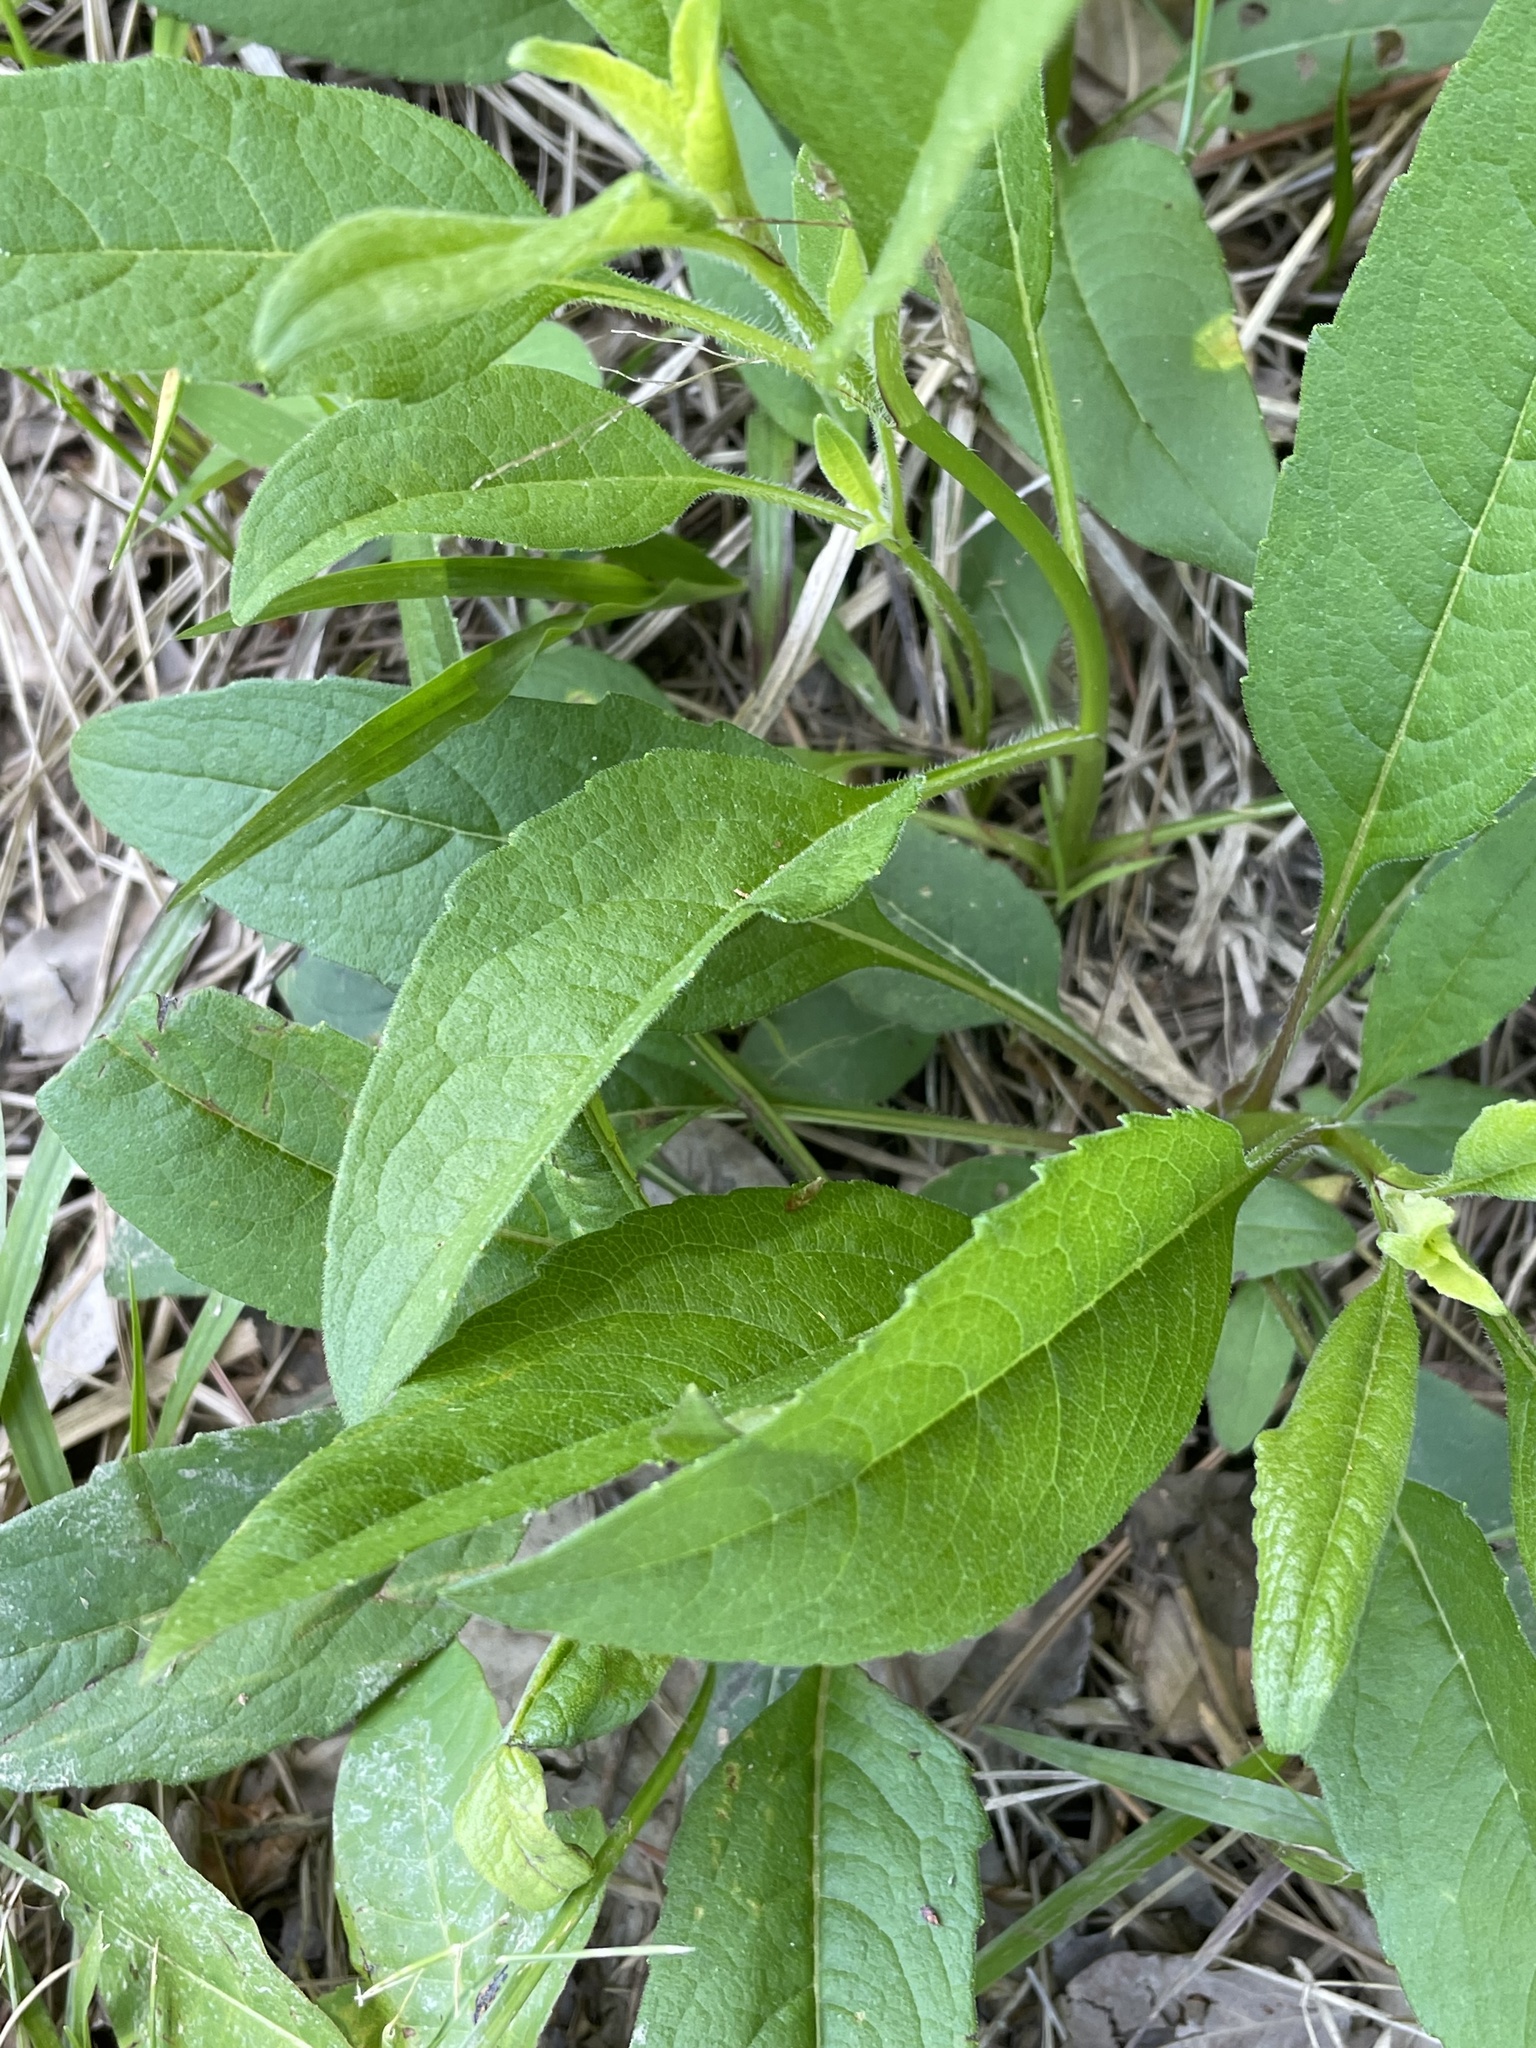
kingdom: Plantae
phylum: Tracheophyta
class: Magnoliopsida
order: Asterales
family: Asteraceae
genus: Silphium
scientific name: Silphium asteriscus
